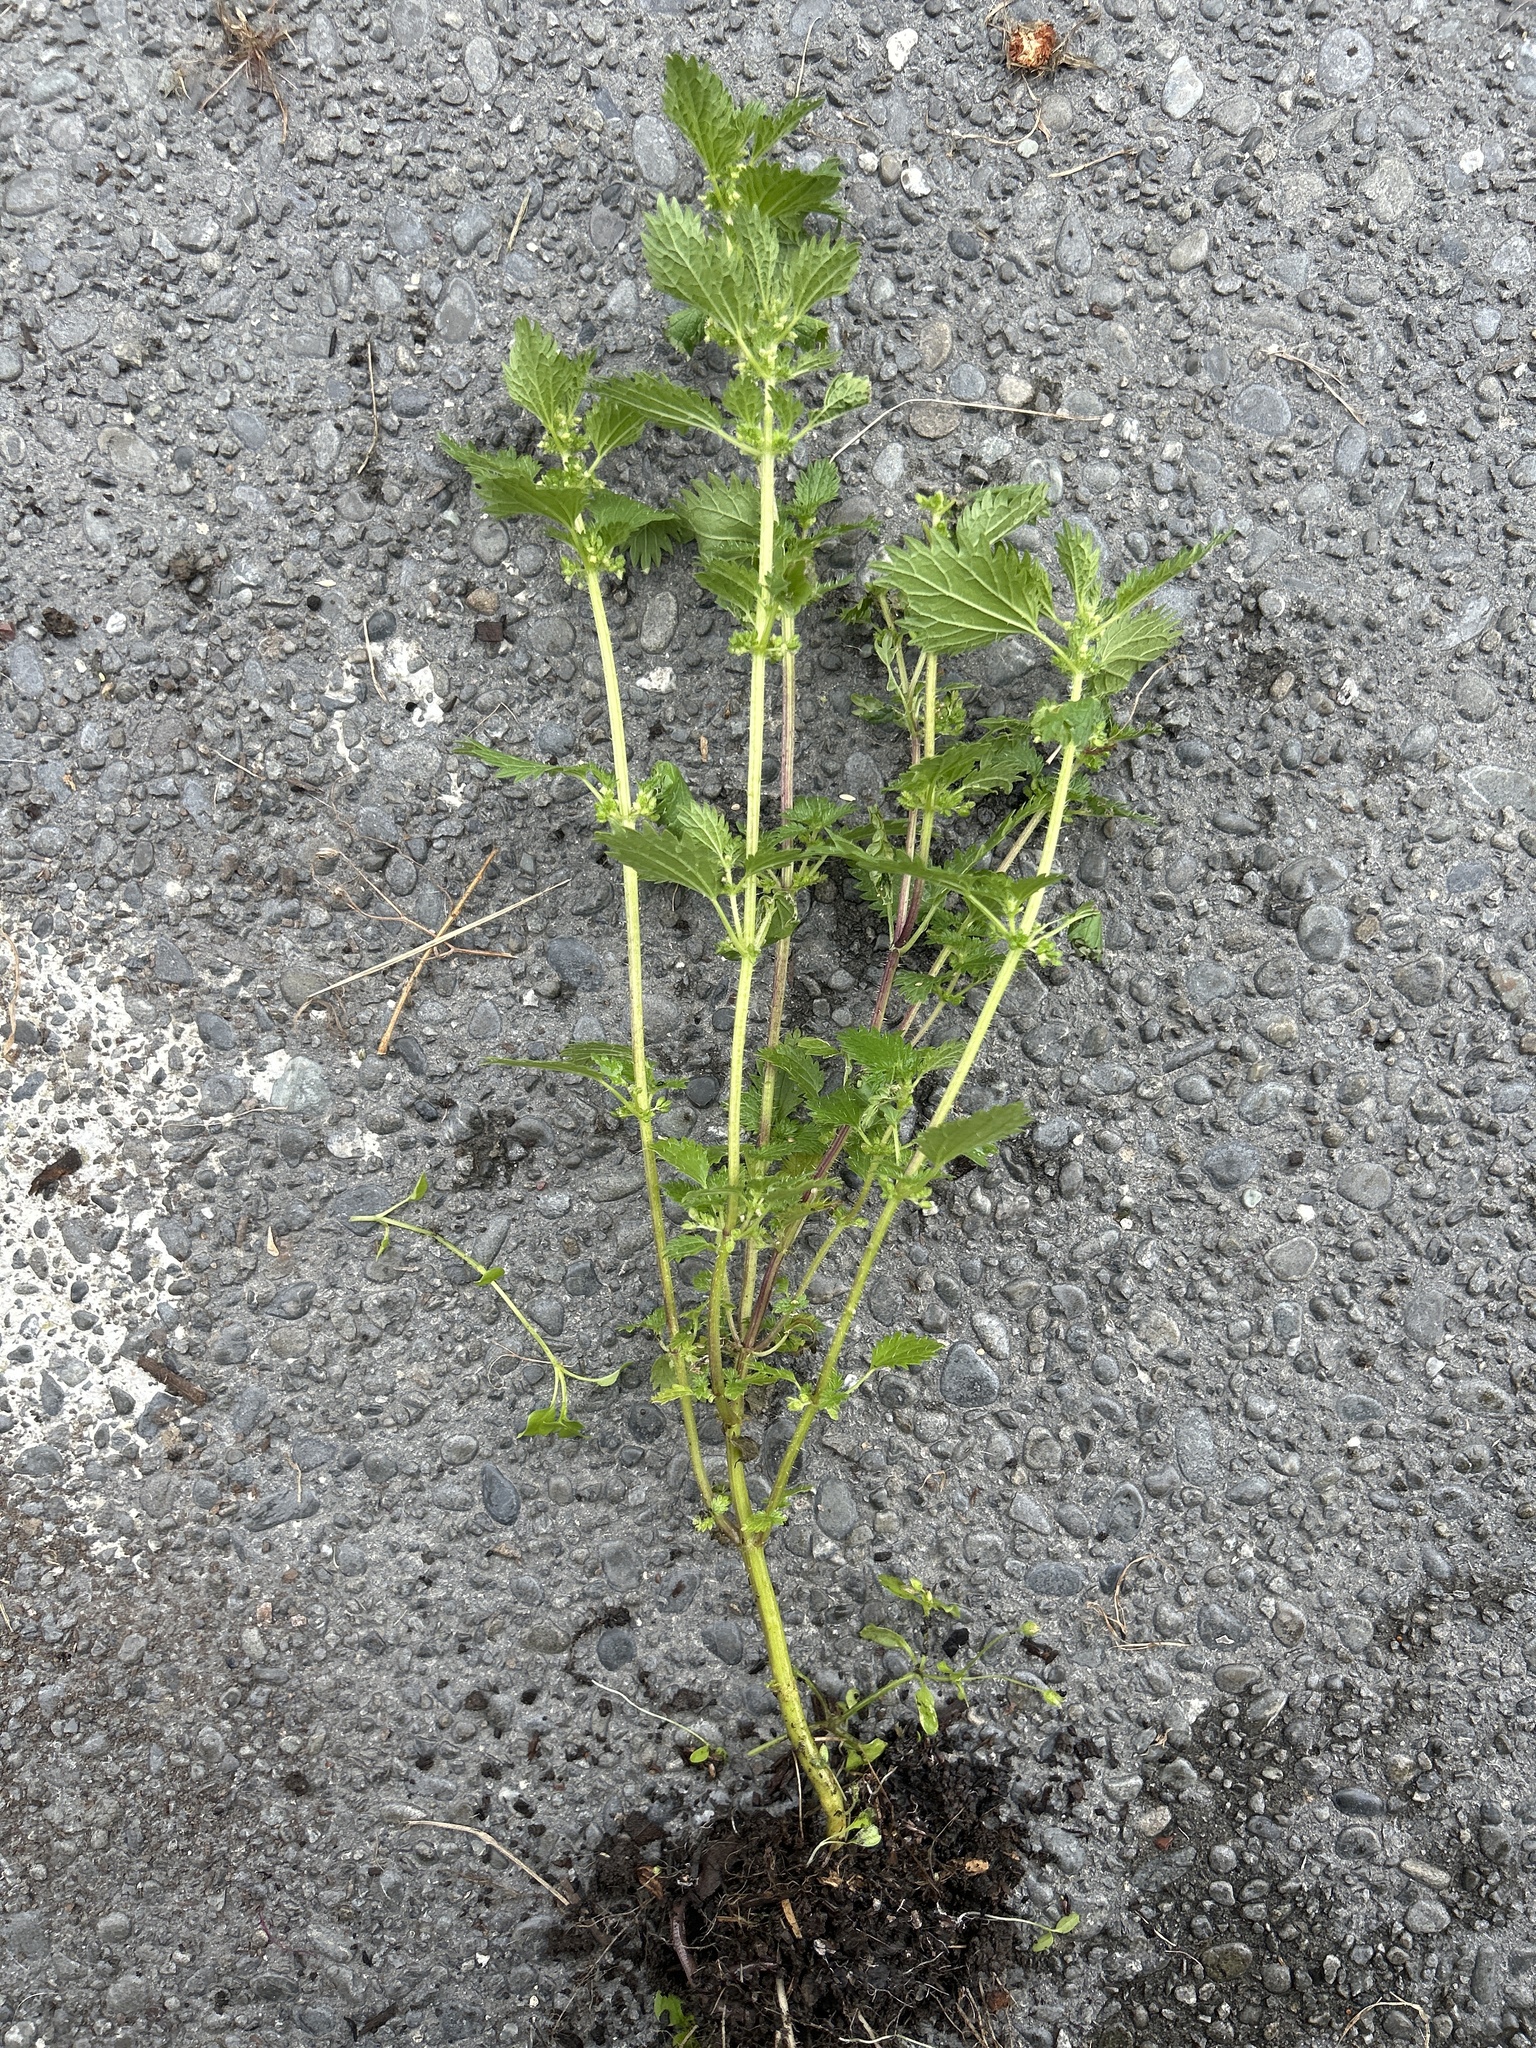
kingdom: Plantae
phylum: Tracheophyta
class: Magnoliopsida
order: Rosales
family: Urticaceae
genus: Urtica
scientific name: Urtica urens
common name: Dwarf nettle
